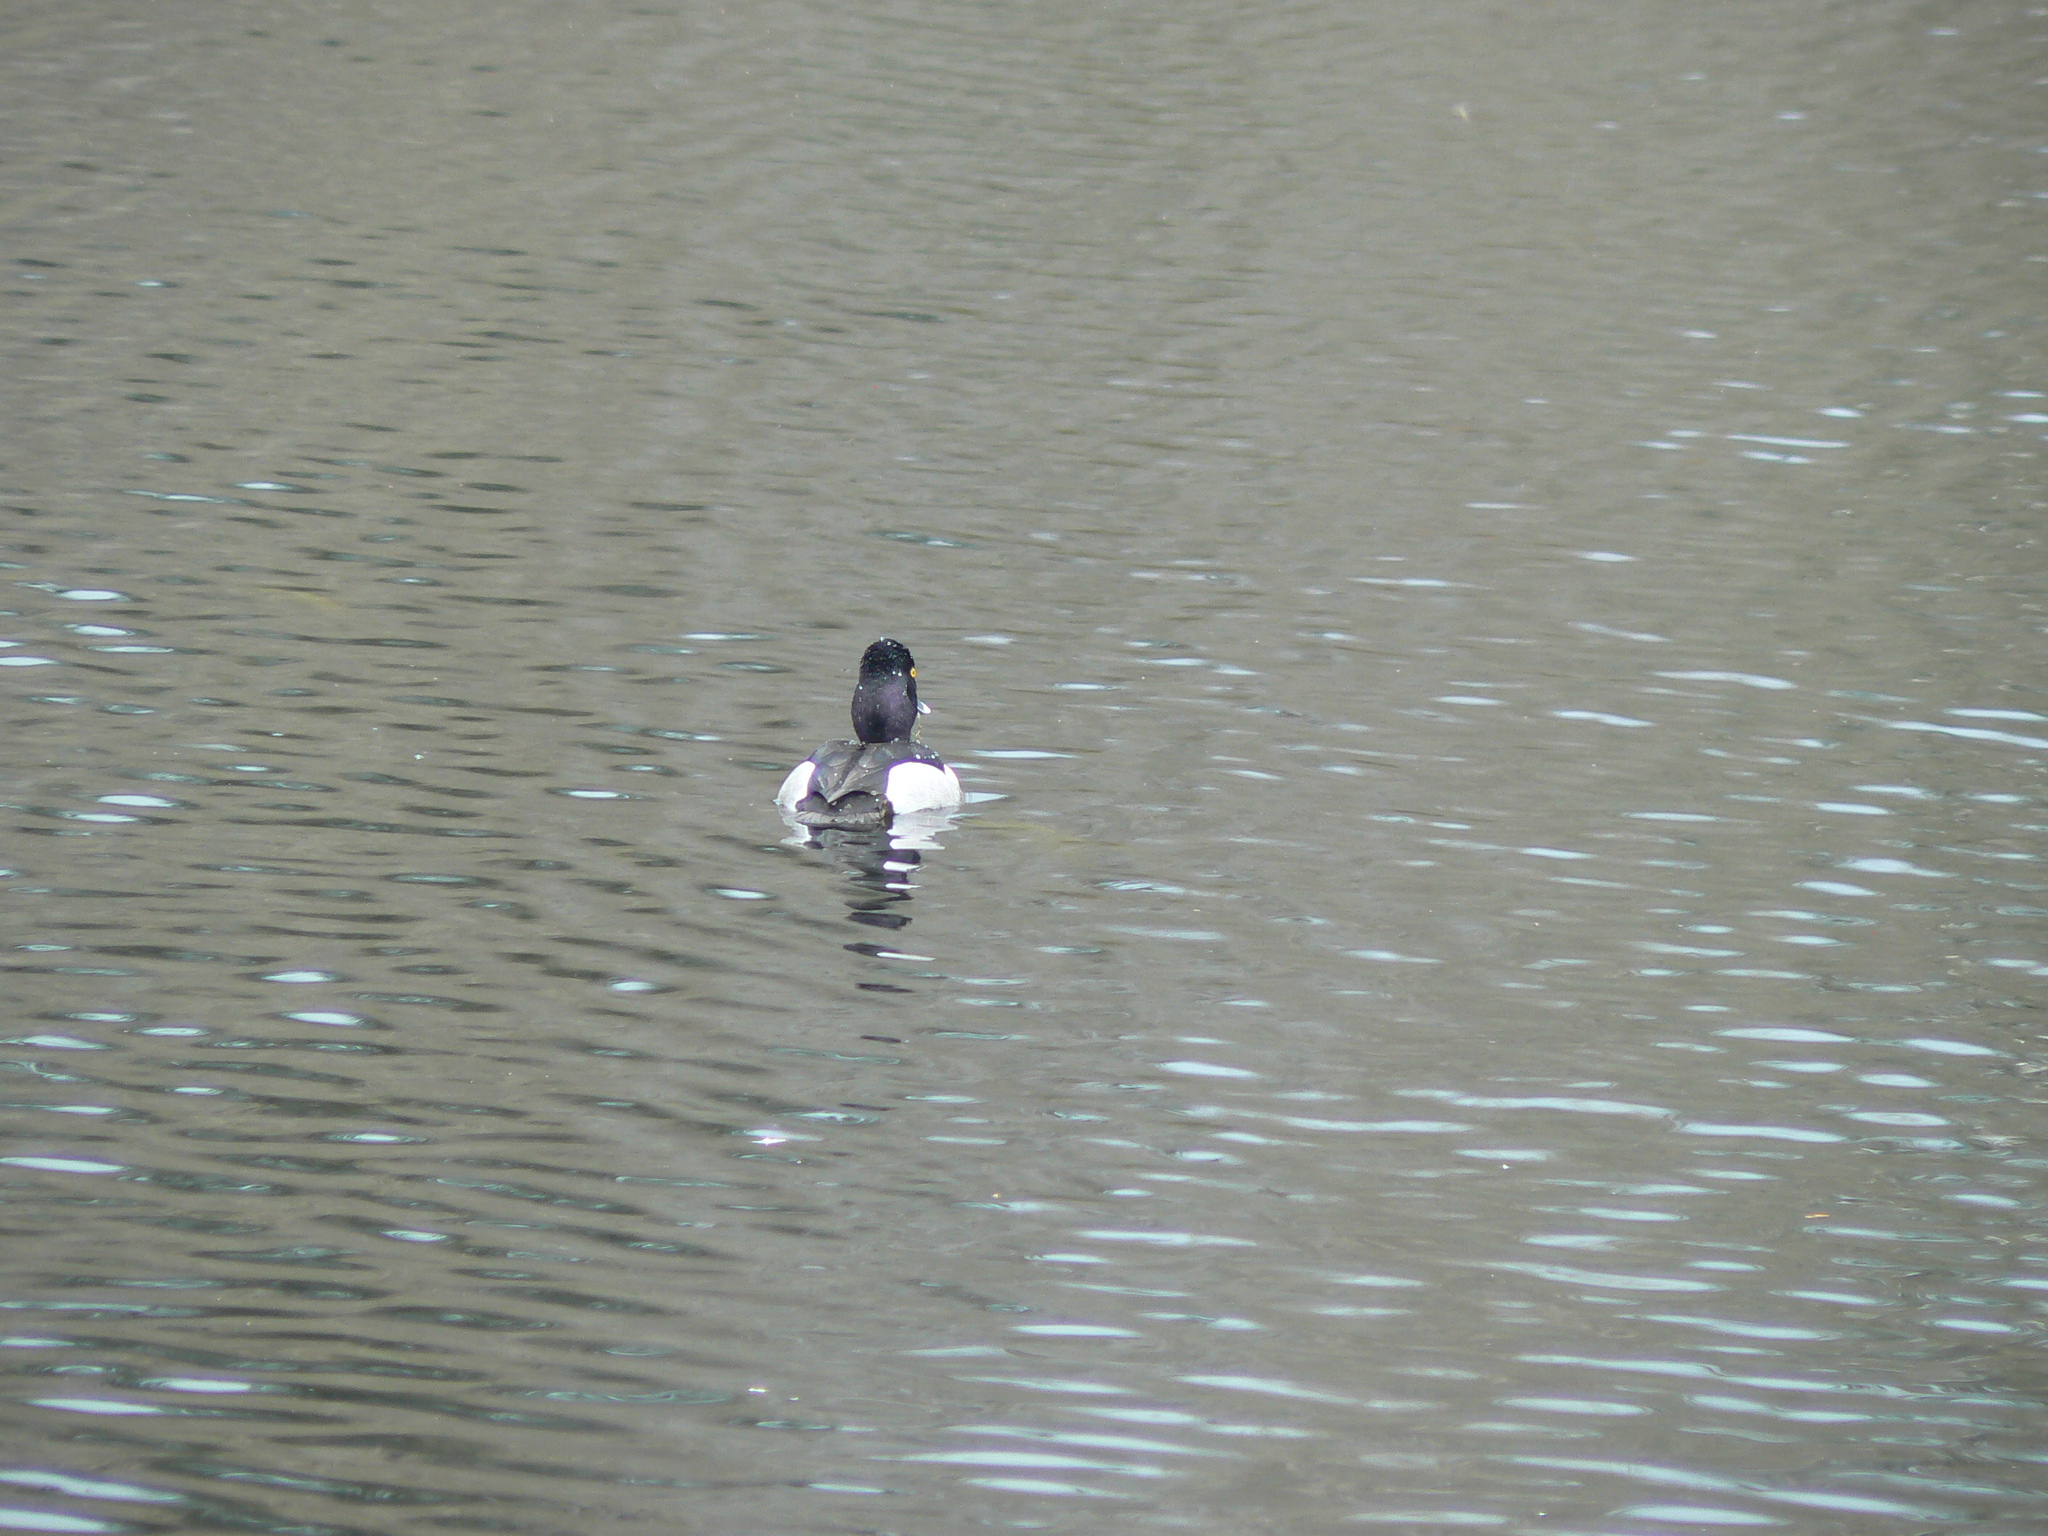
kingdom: Animalia
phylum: Chordata
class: Aves
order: Anseriformes
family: Anatidae
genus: Aythya
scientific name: Aythya collaris
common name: Ring-necked duck
